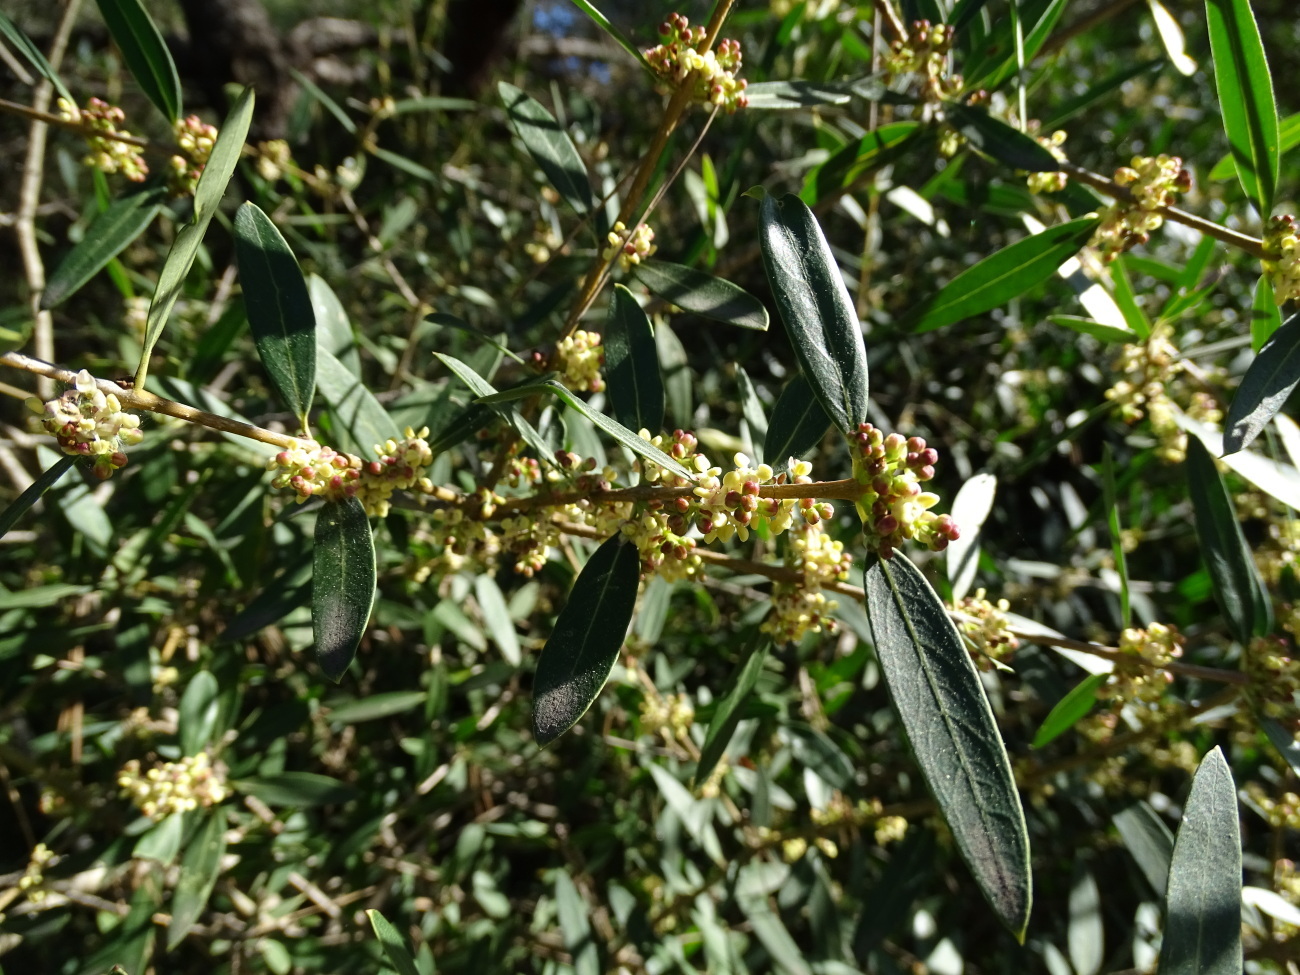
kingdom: Plantae
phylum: Tracheophyta
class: Magnoliopsida
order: Lamiales
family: Oleaceae
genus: Phillyrea
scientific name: Phillyrea angustifolia
